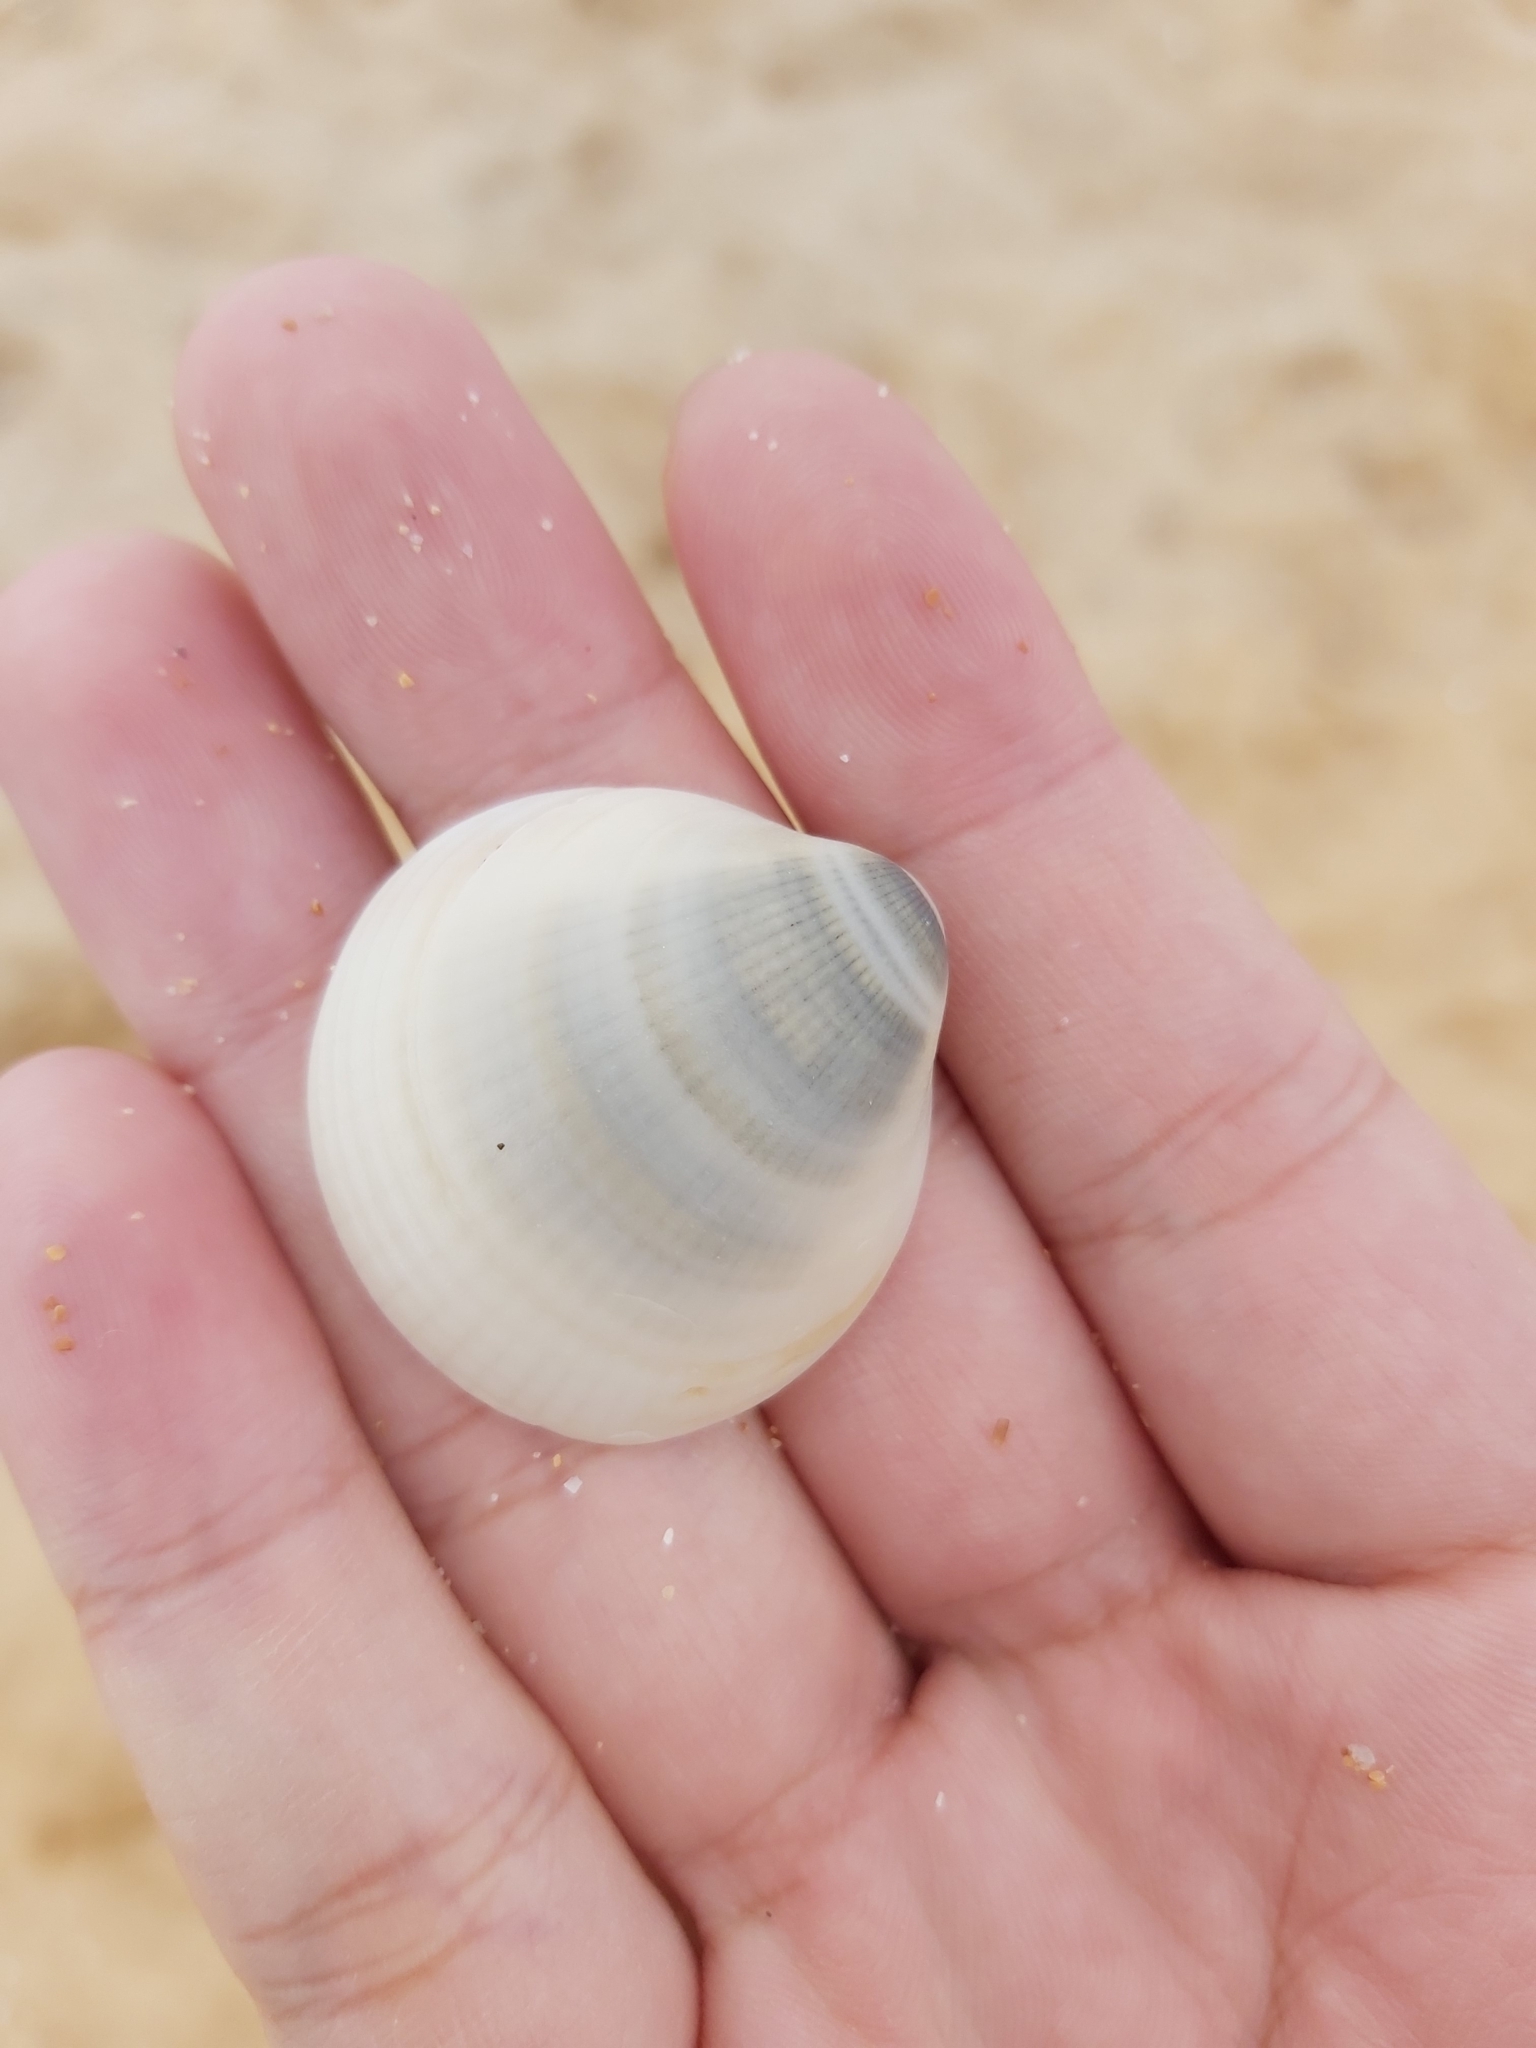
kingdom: Animalia
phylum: Mollusca
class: Bivalvia
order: Arcida
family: Glycymerididae
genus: Glycymeris
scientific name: Glycymeris grayana
